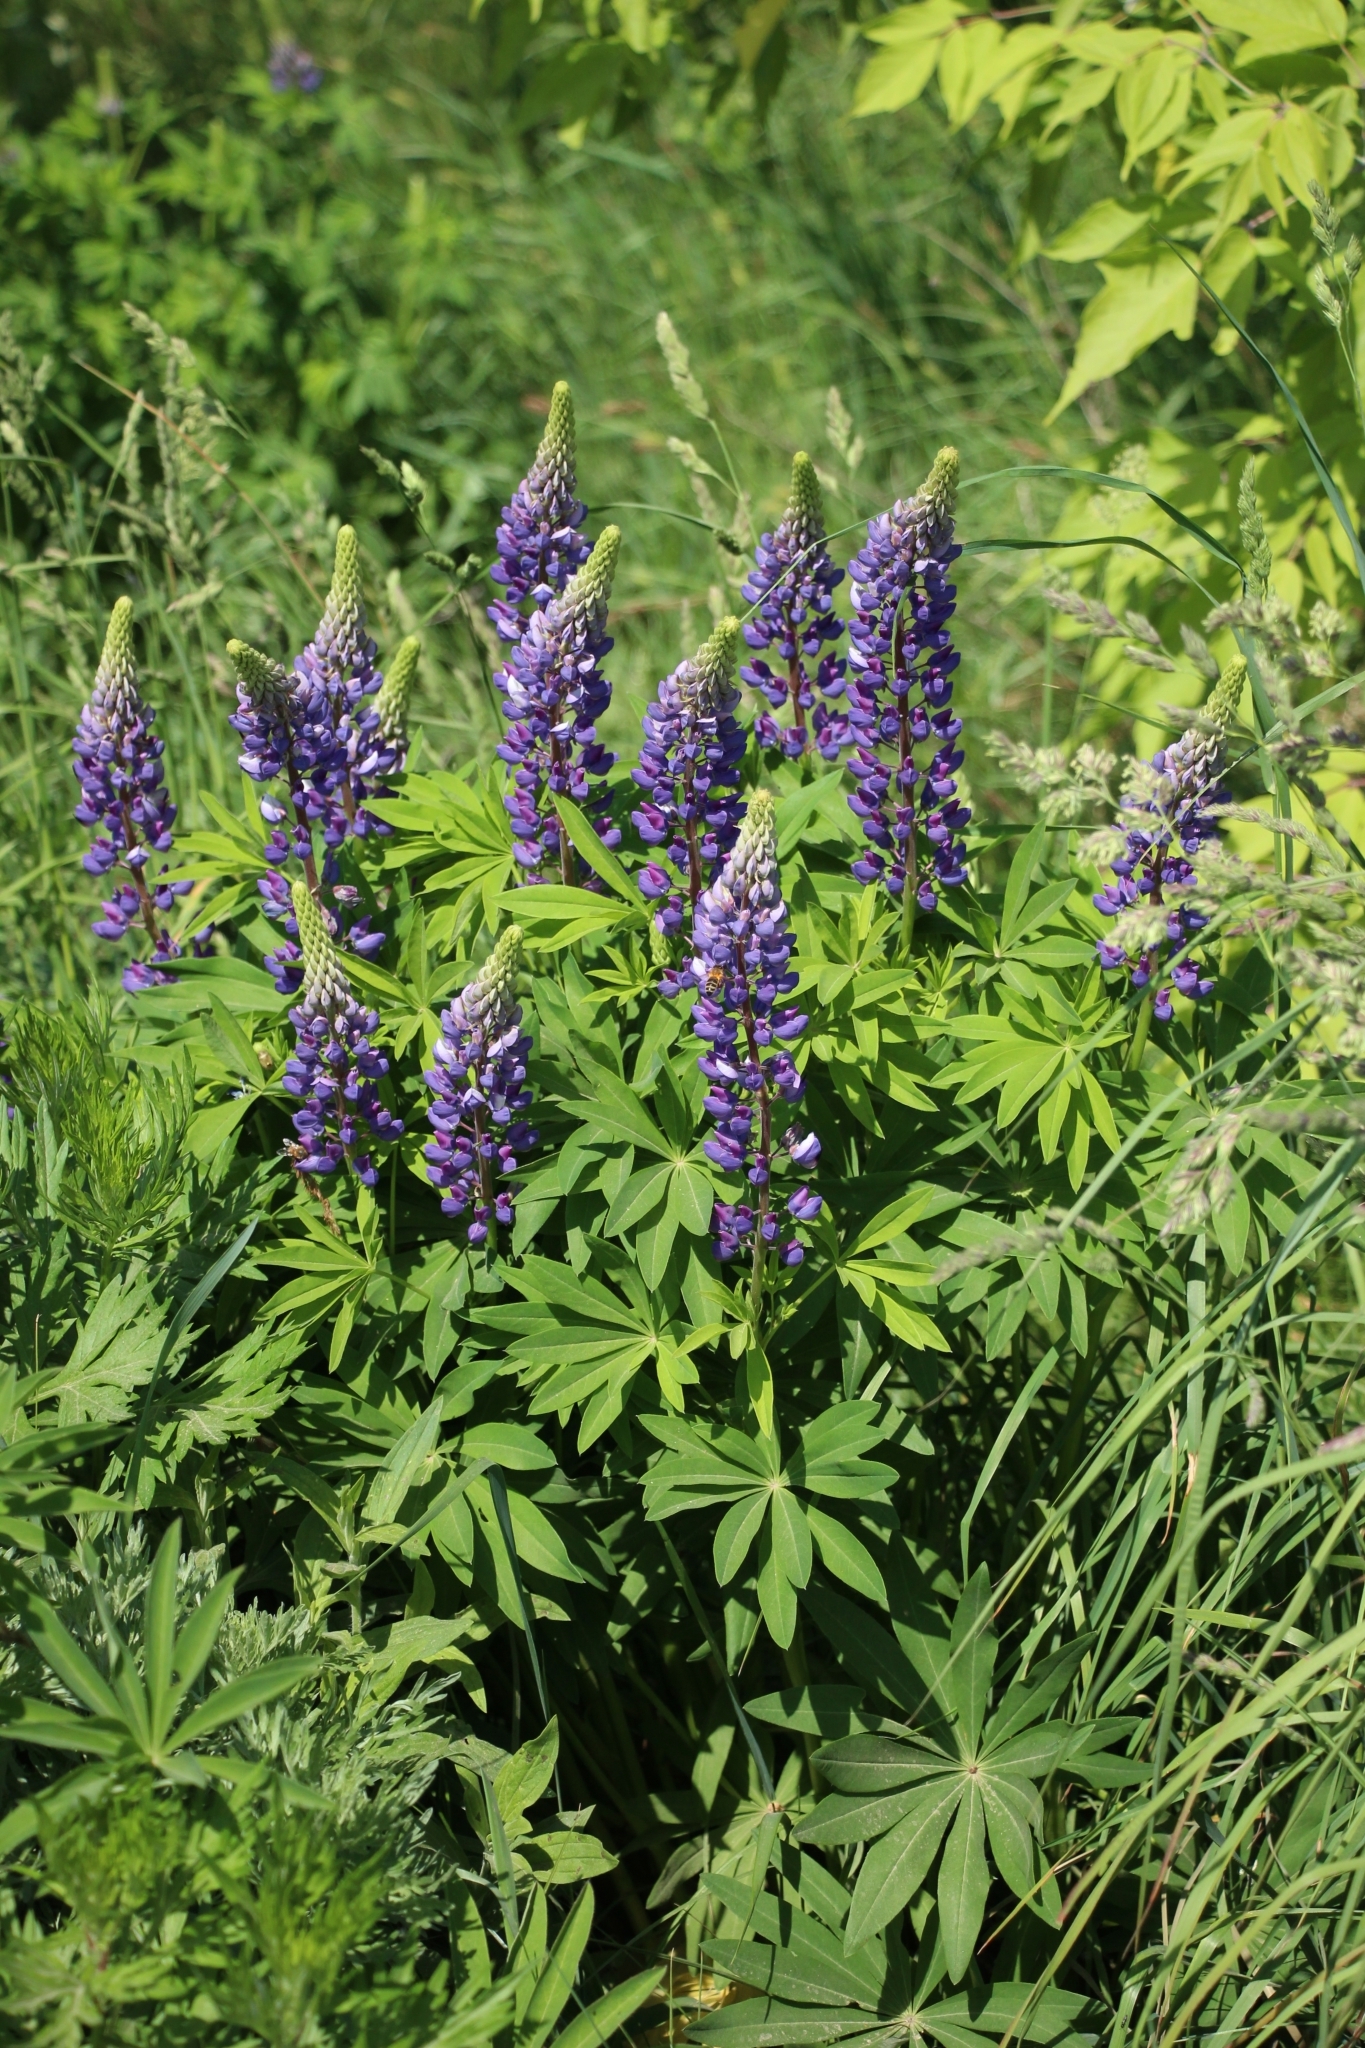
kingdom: Plantae
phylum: Tracheophyta
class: Magnoliopsida
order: Fabales
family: Fabaceae
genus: Lupinus
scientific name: Lupinus polyphyllus
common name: Garden lupin
